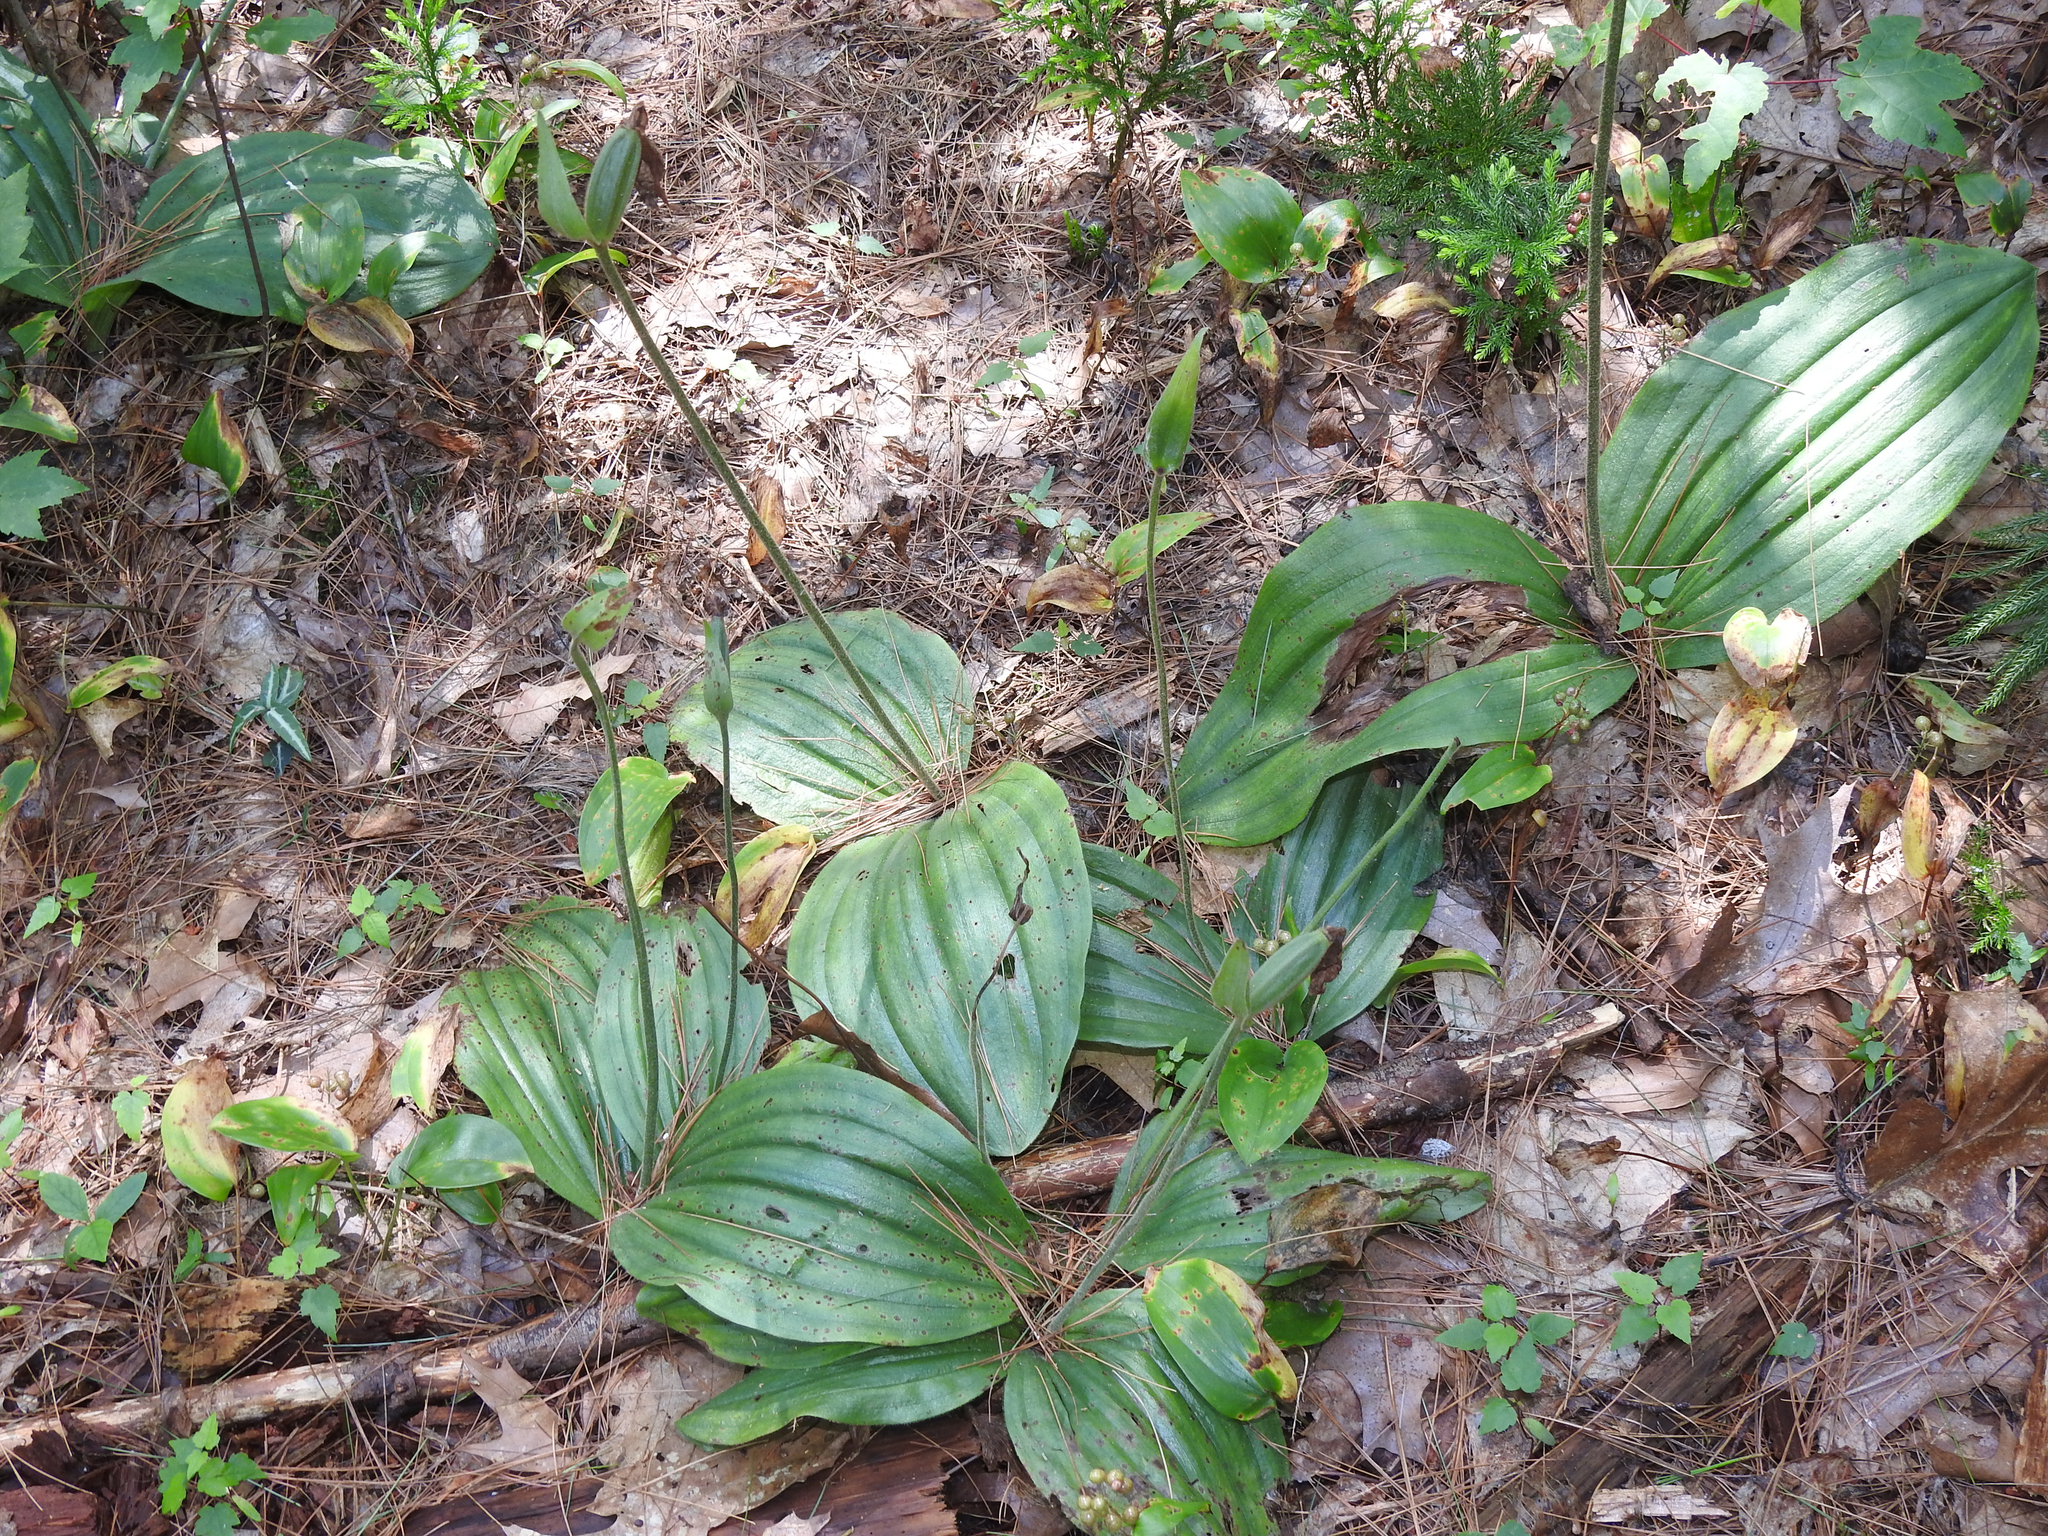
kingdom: Plantae
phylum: Tracheophyta
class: Liliopsida
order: Asparagales
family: Orchidaceae
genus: Cypripedium
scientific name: Cypripedium acaule
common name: Pink lady's-slipper
